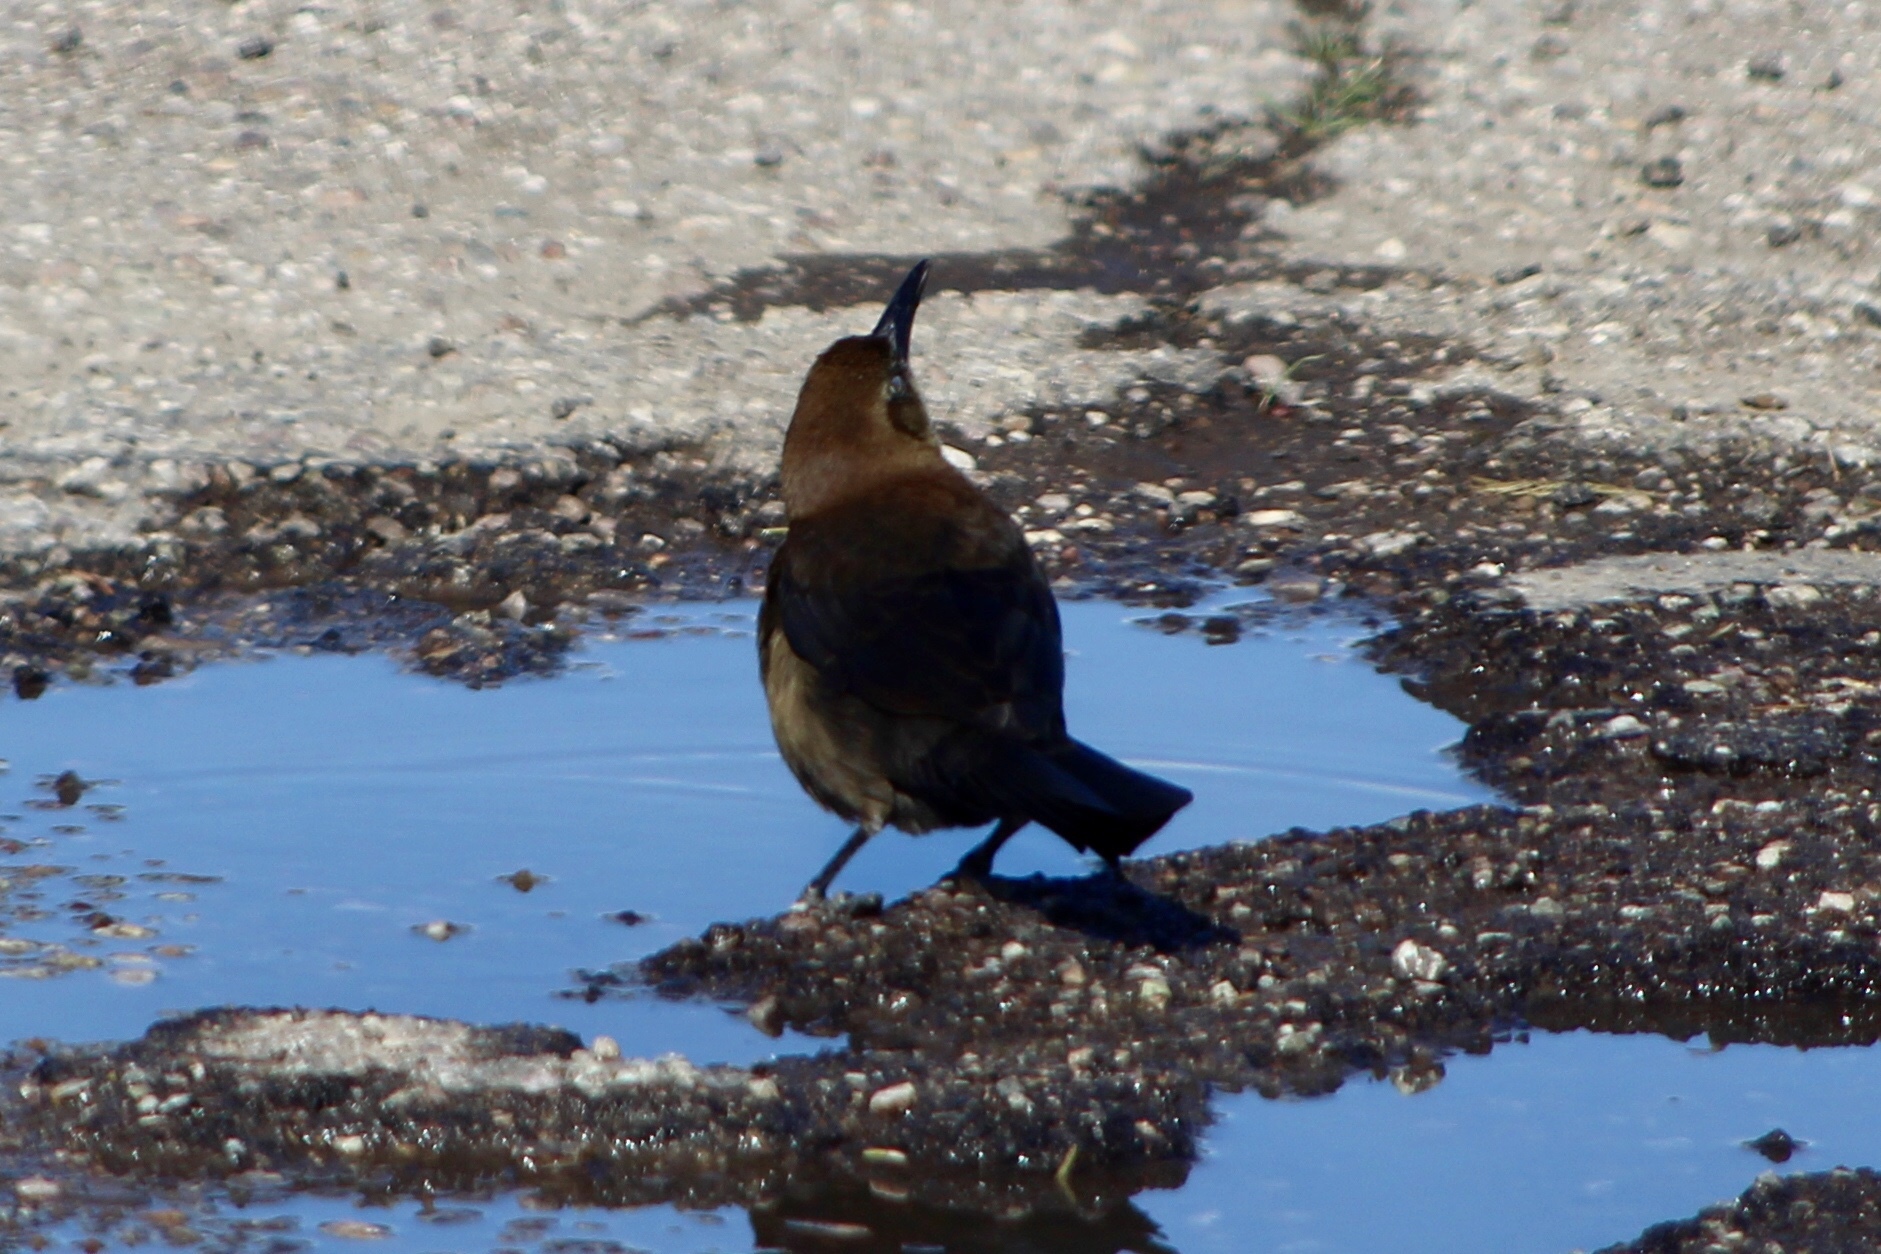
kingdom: Animalia
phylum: Chordata
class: Aves
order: Passeriformes
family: Icteridae
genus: Quiscalus
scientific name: Quiscalus mexicanus
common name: Great-tailed grackle
